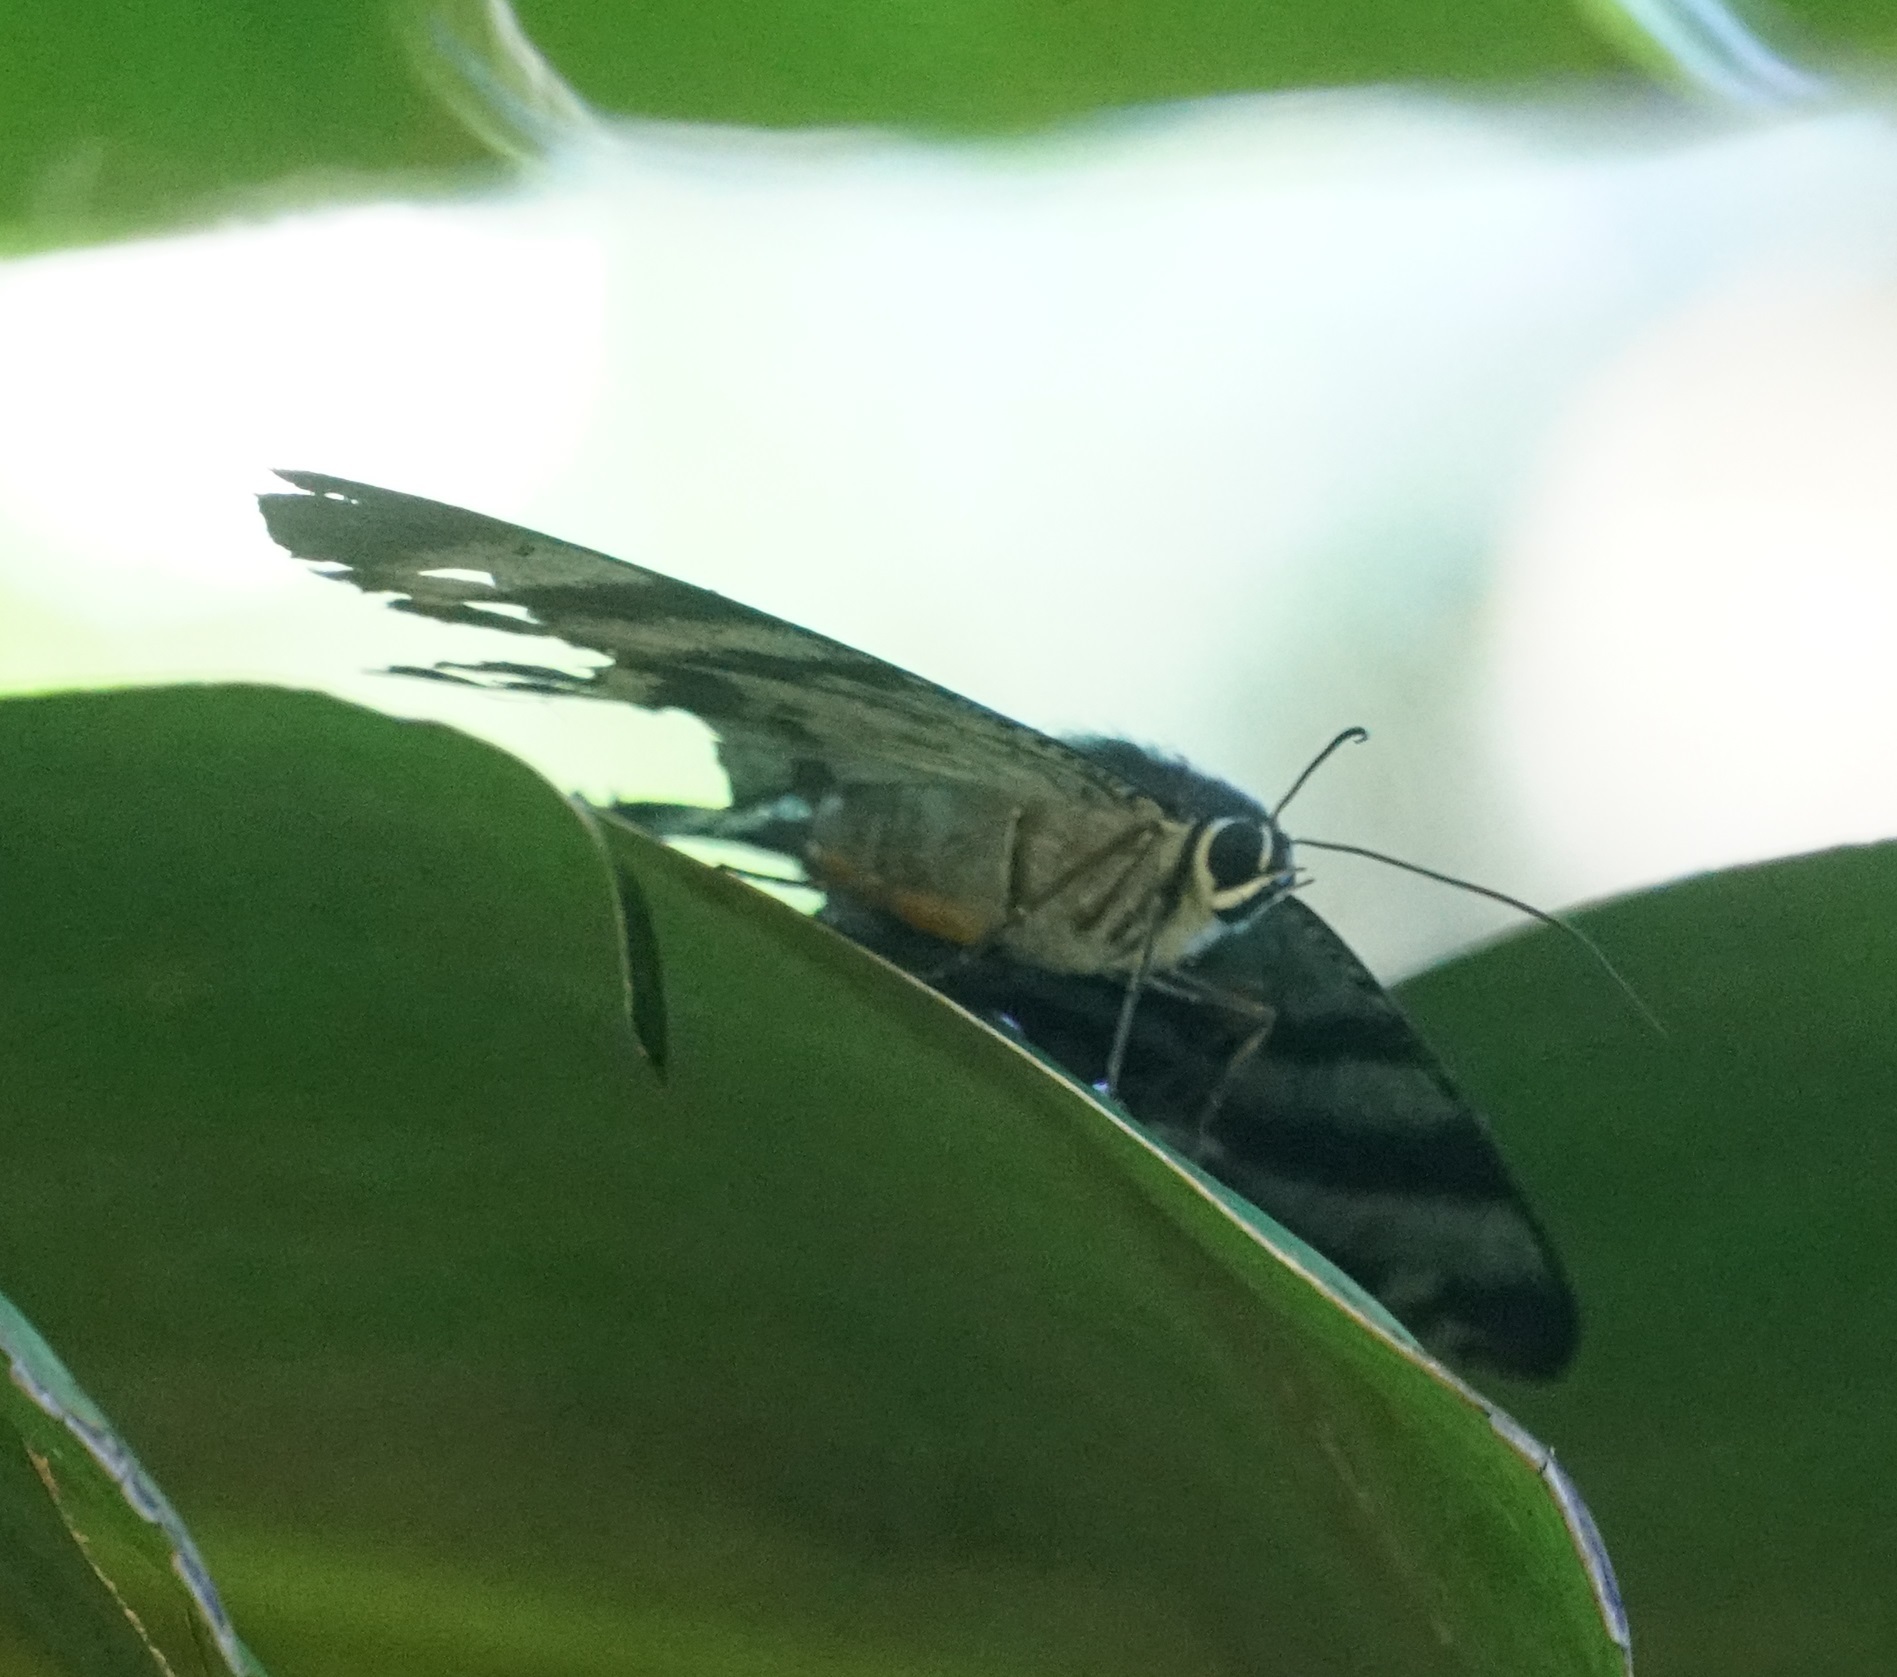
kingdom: Animalia
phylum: Arthropoda
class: Insecta
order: Lepidoptera
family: Uraniidae
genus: Alcides
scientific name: Alcides metaurus
